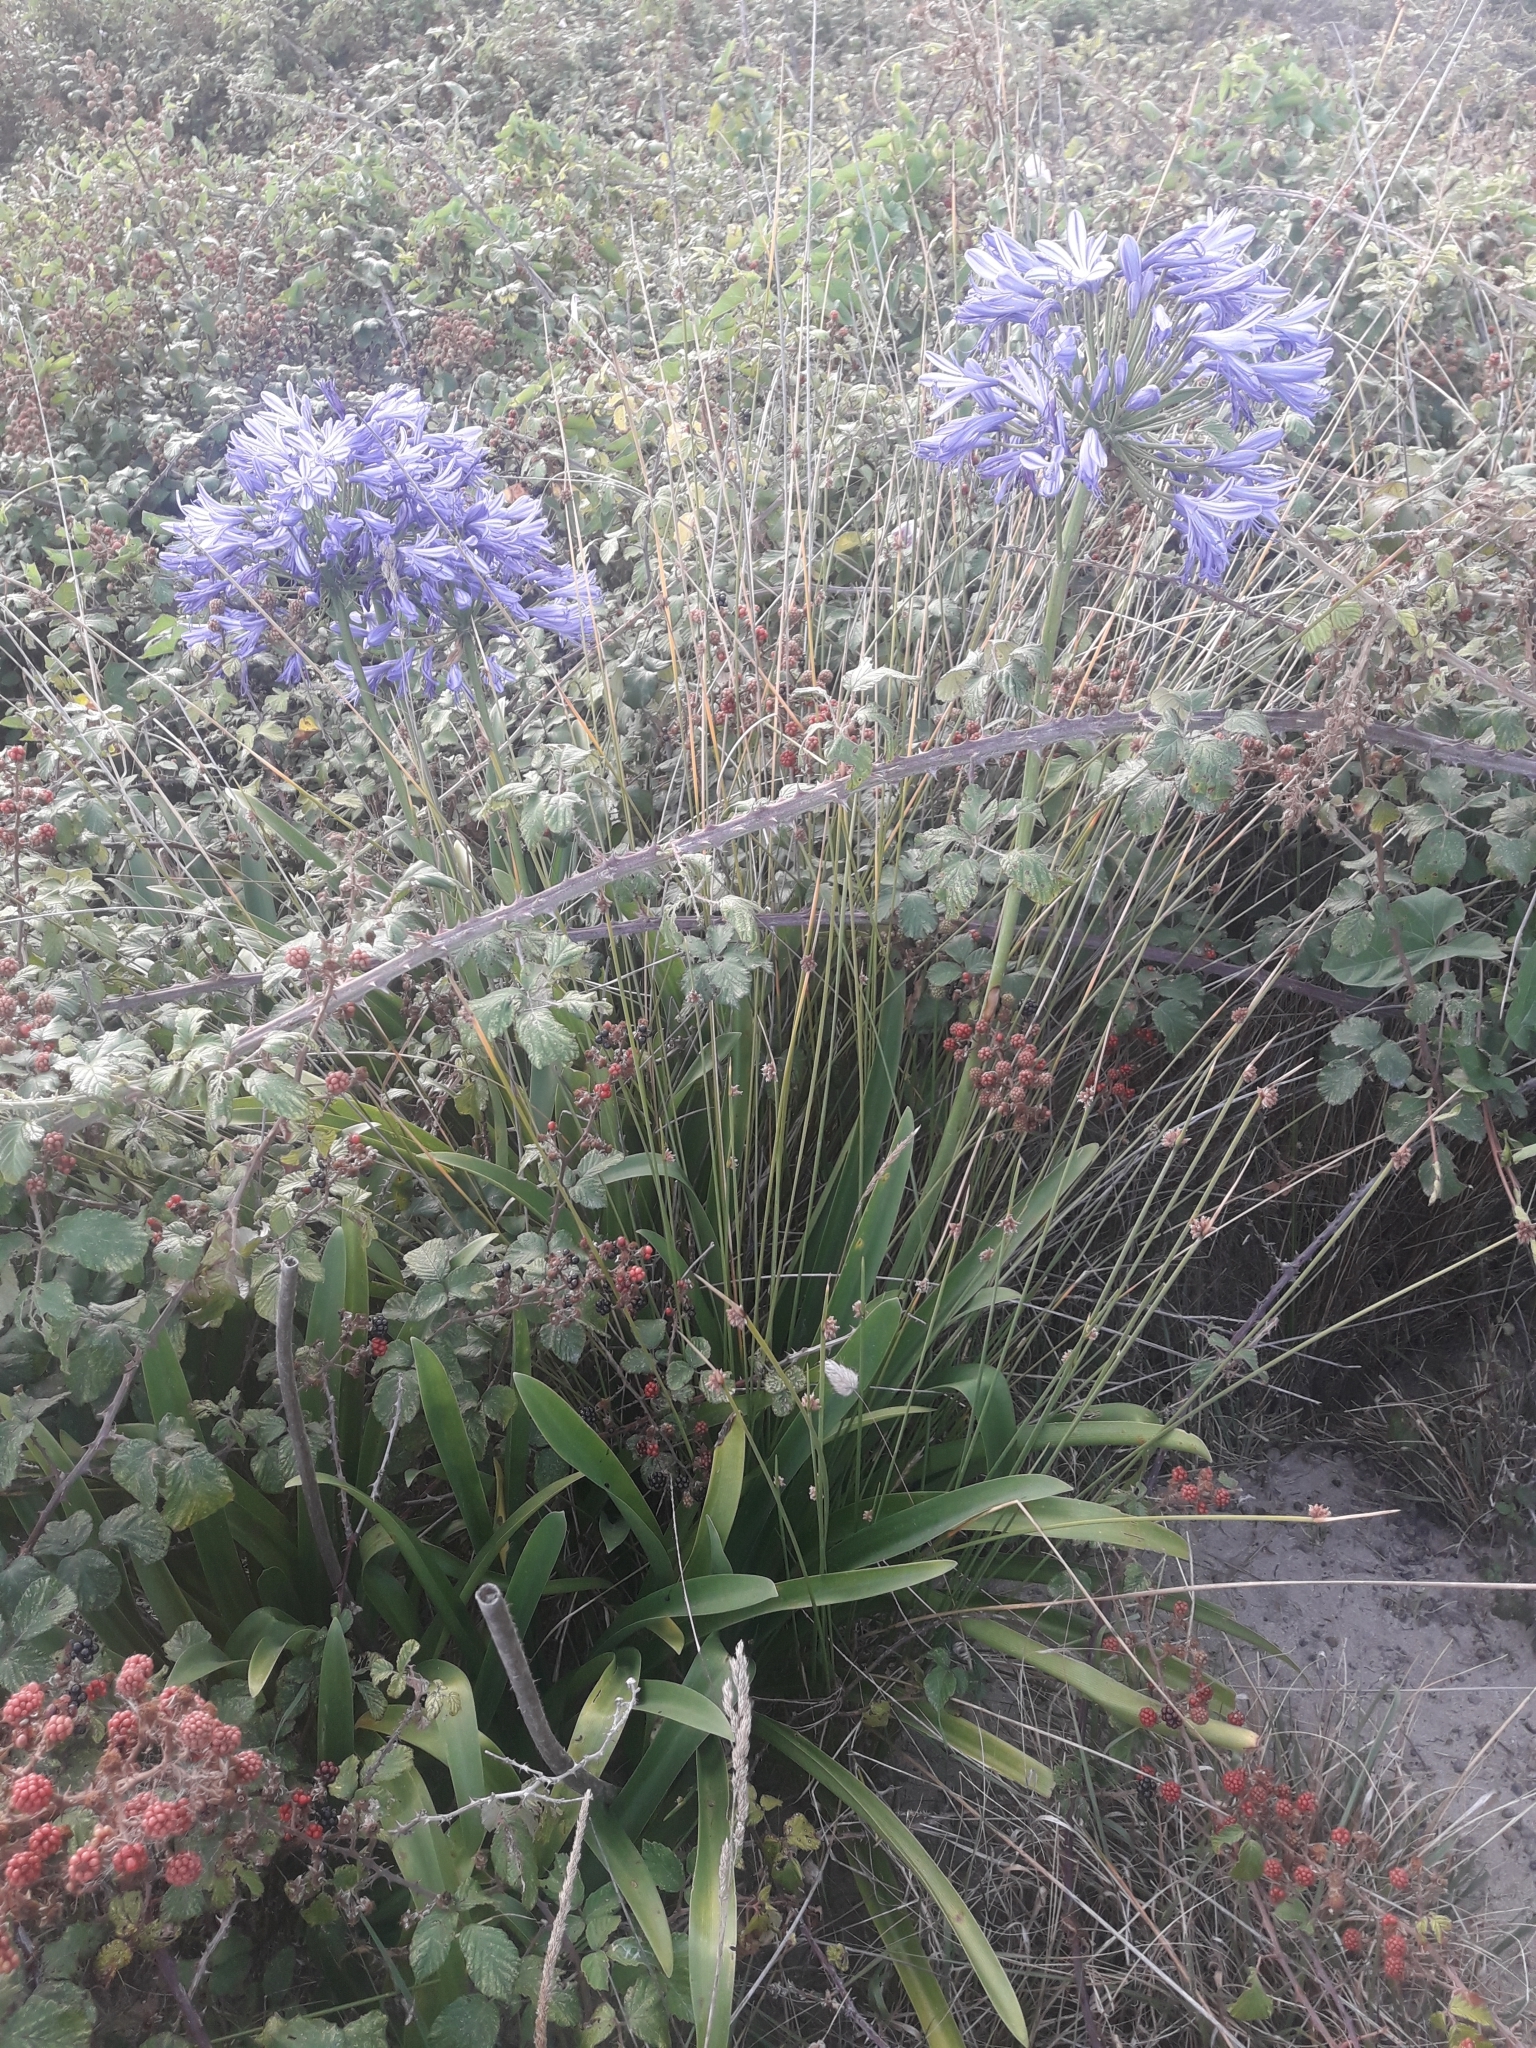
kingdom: Plantae
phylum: Tracheophyta
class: Liliopsida
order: Asparagales
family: Amaryllidaceae
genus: Agapanthus
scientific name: Agapanthus praecox
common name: African-lily
